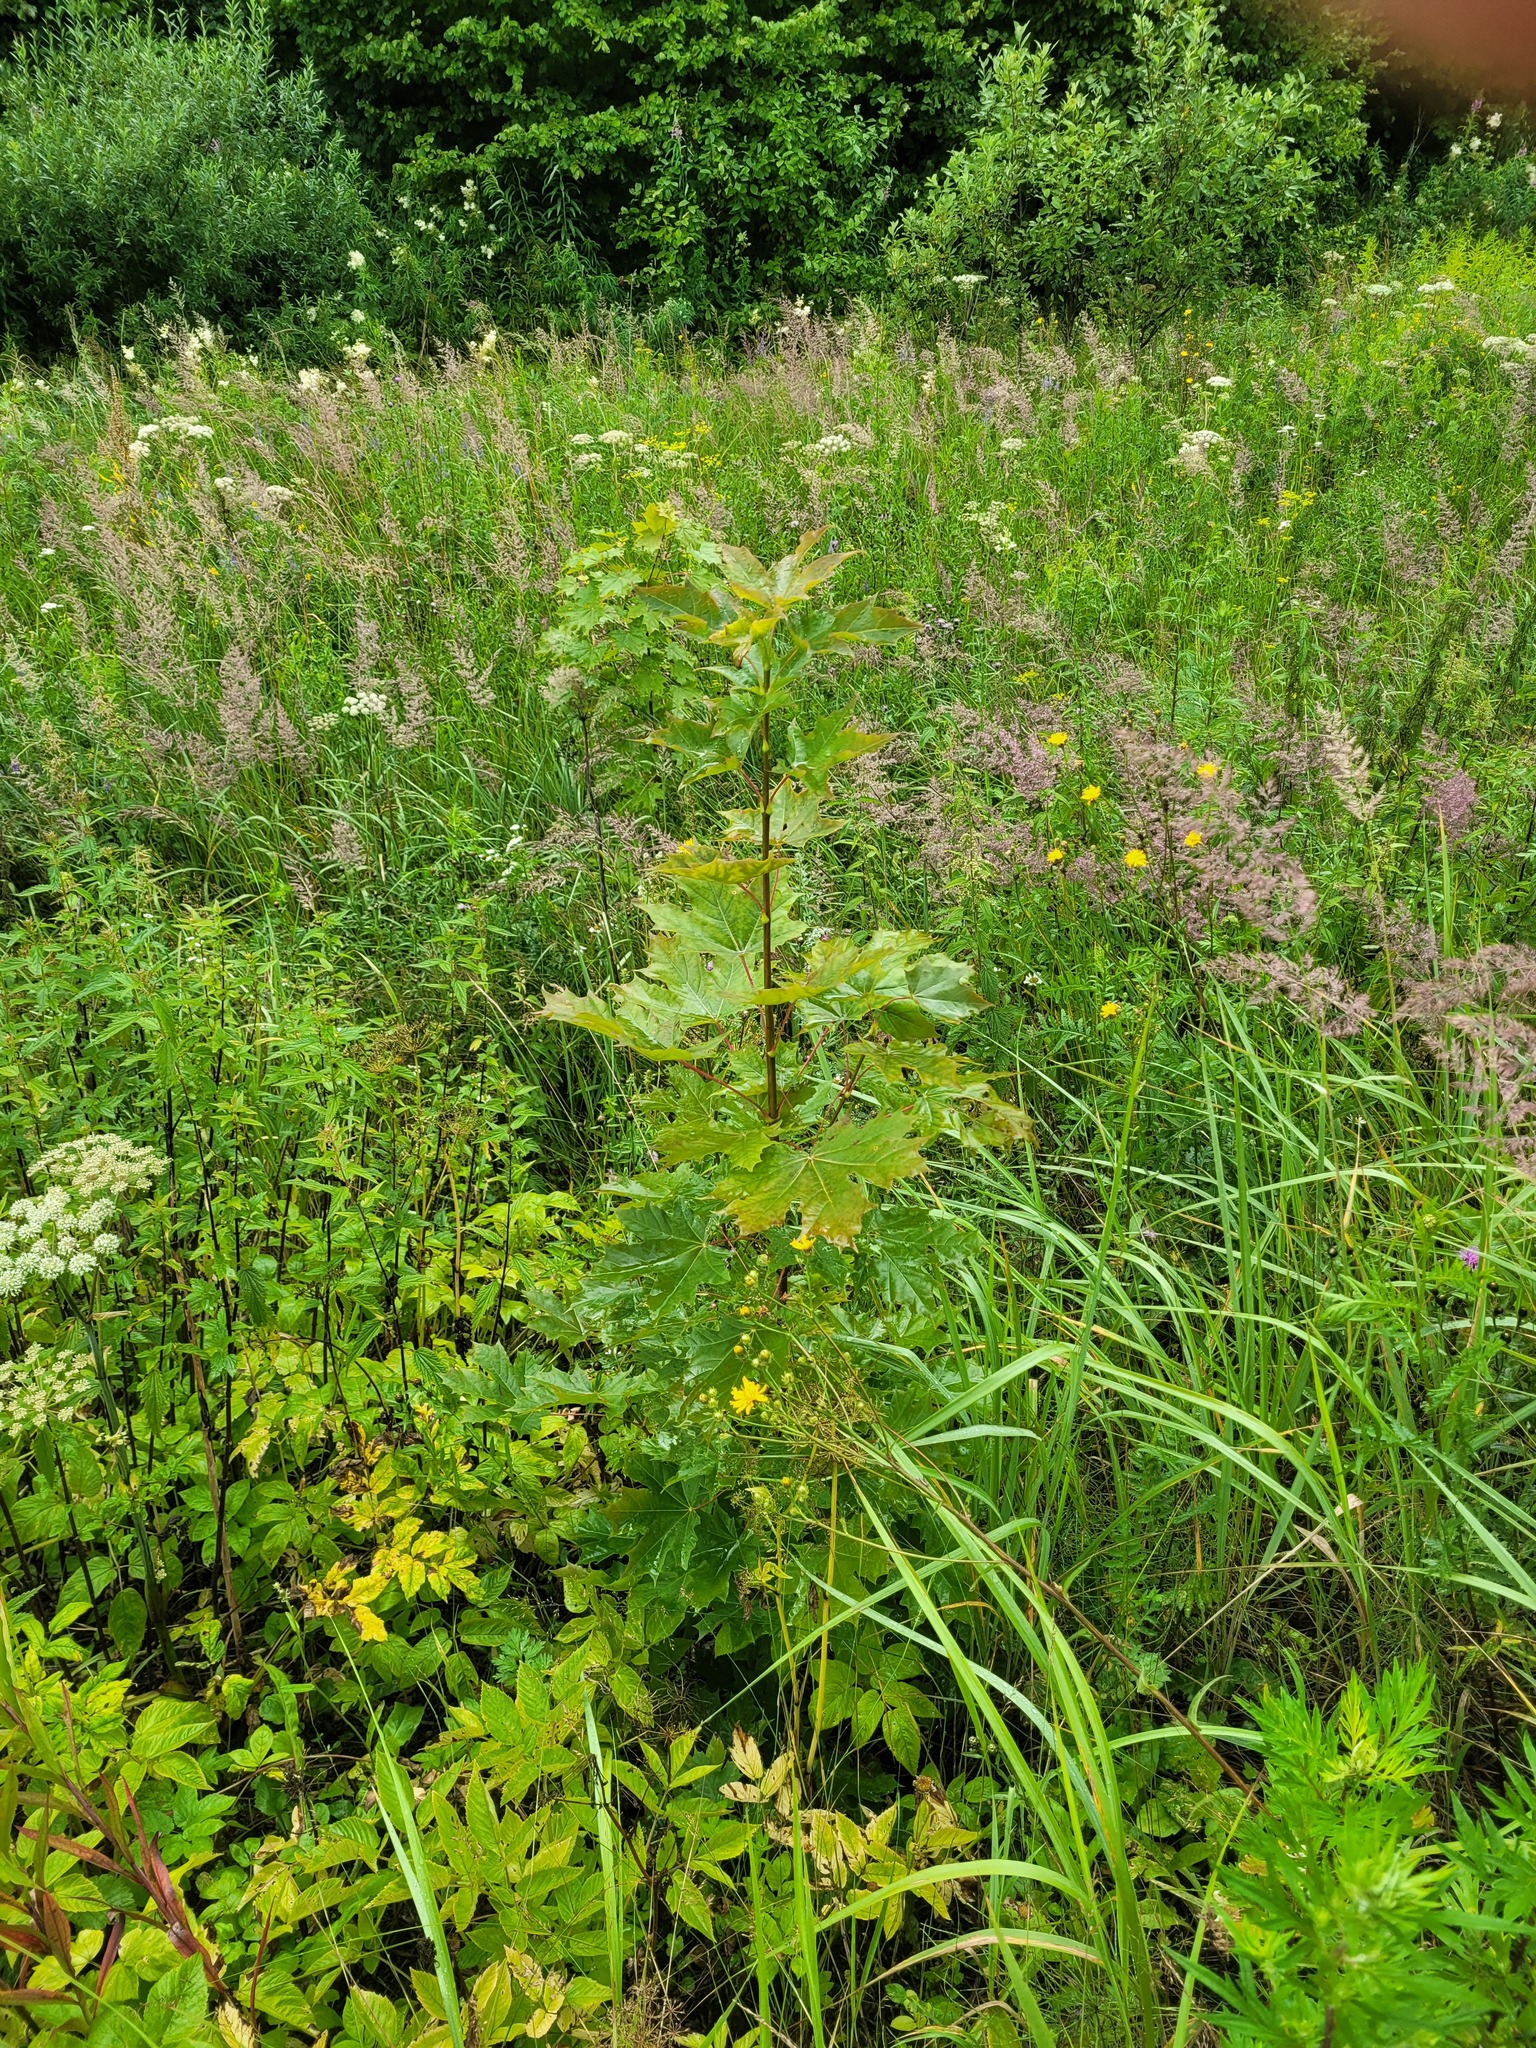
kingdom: Plantae
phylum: Tracheophyta
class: Magnoliopsida
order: Sapindales
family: Sapindaceae
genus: Acer
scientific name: Acer platanoides
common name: Norway maple
